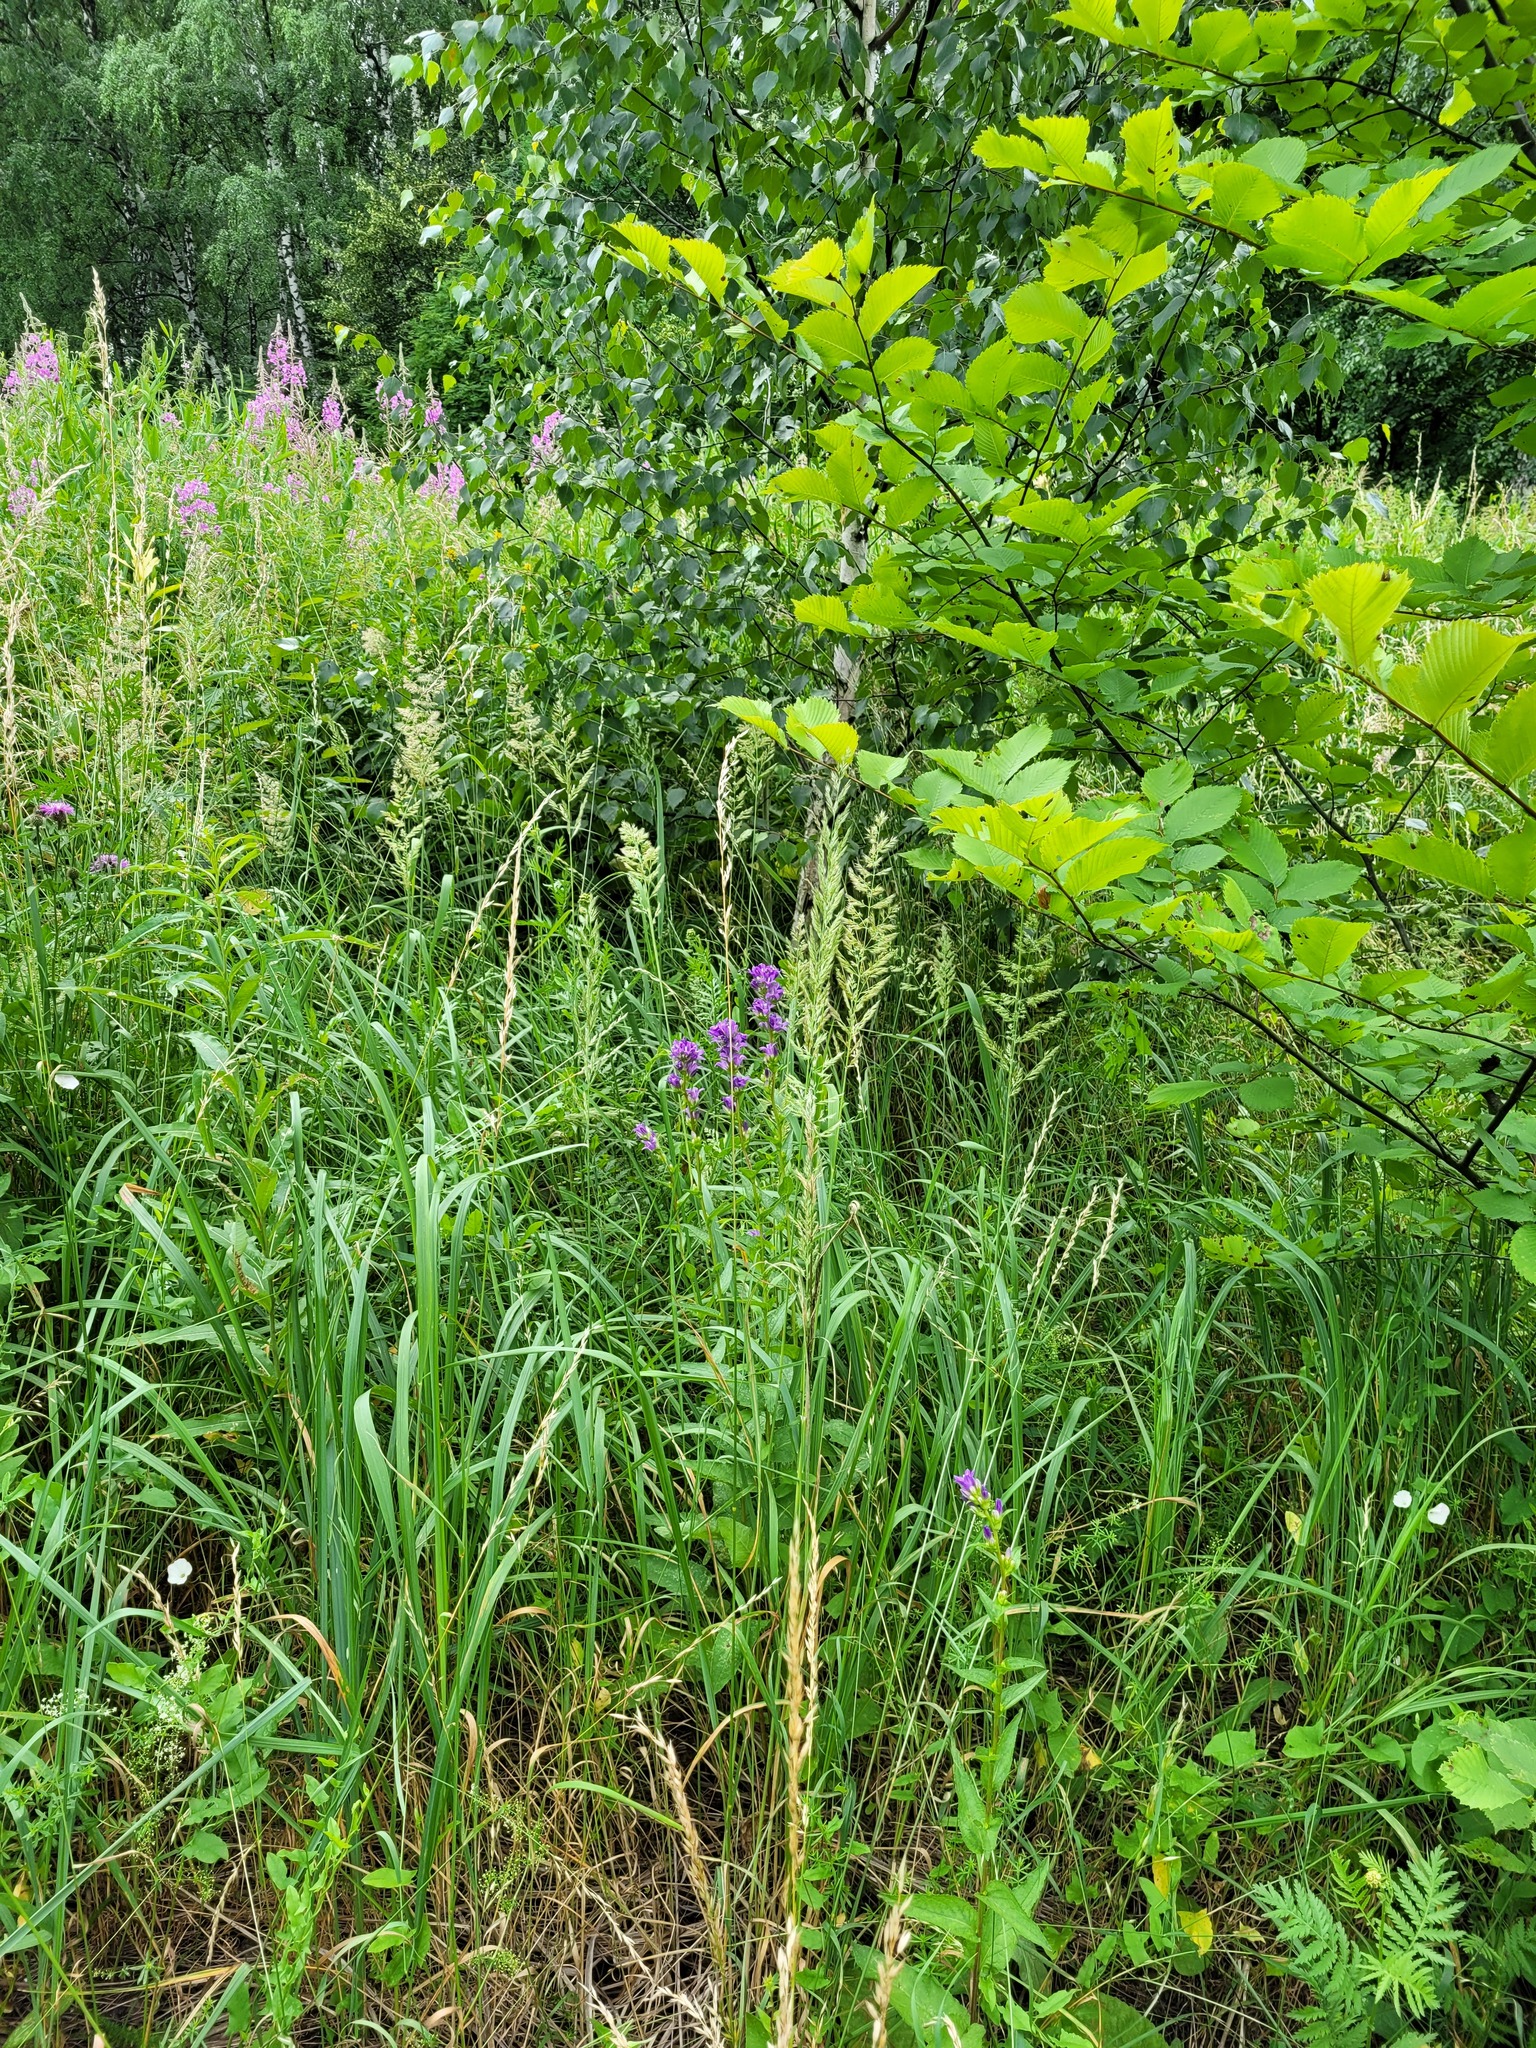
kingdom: Plantae
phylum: Tracheophyta
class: Magnoliopsida
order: Asterales
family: Campanulaceae
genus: Campanula
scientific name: Campanula glomerata
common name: Clustered bellflower
